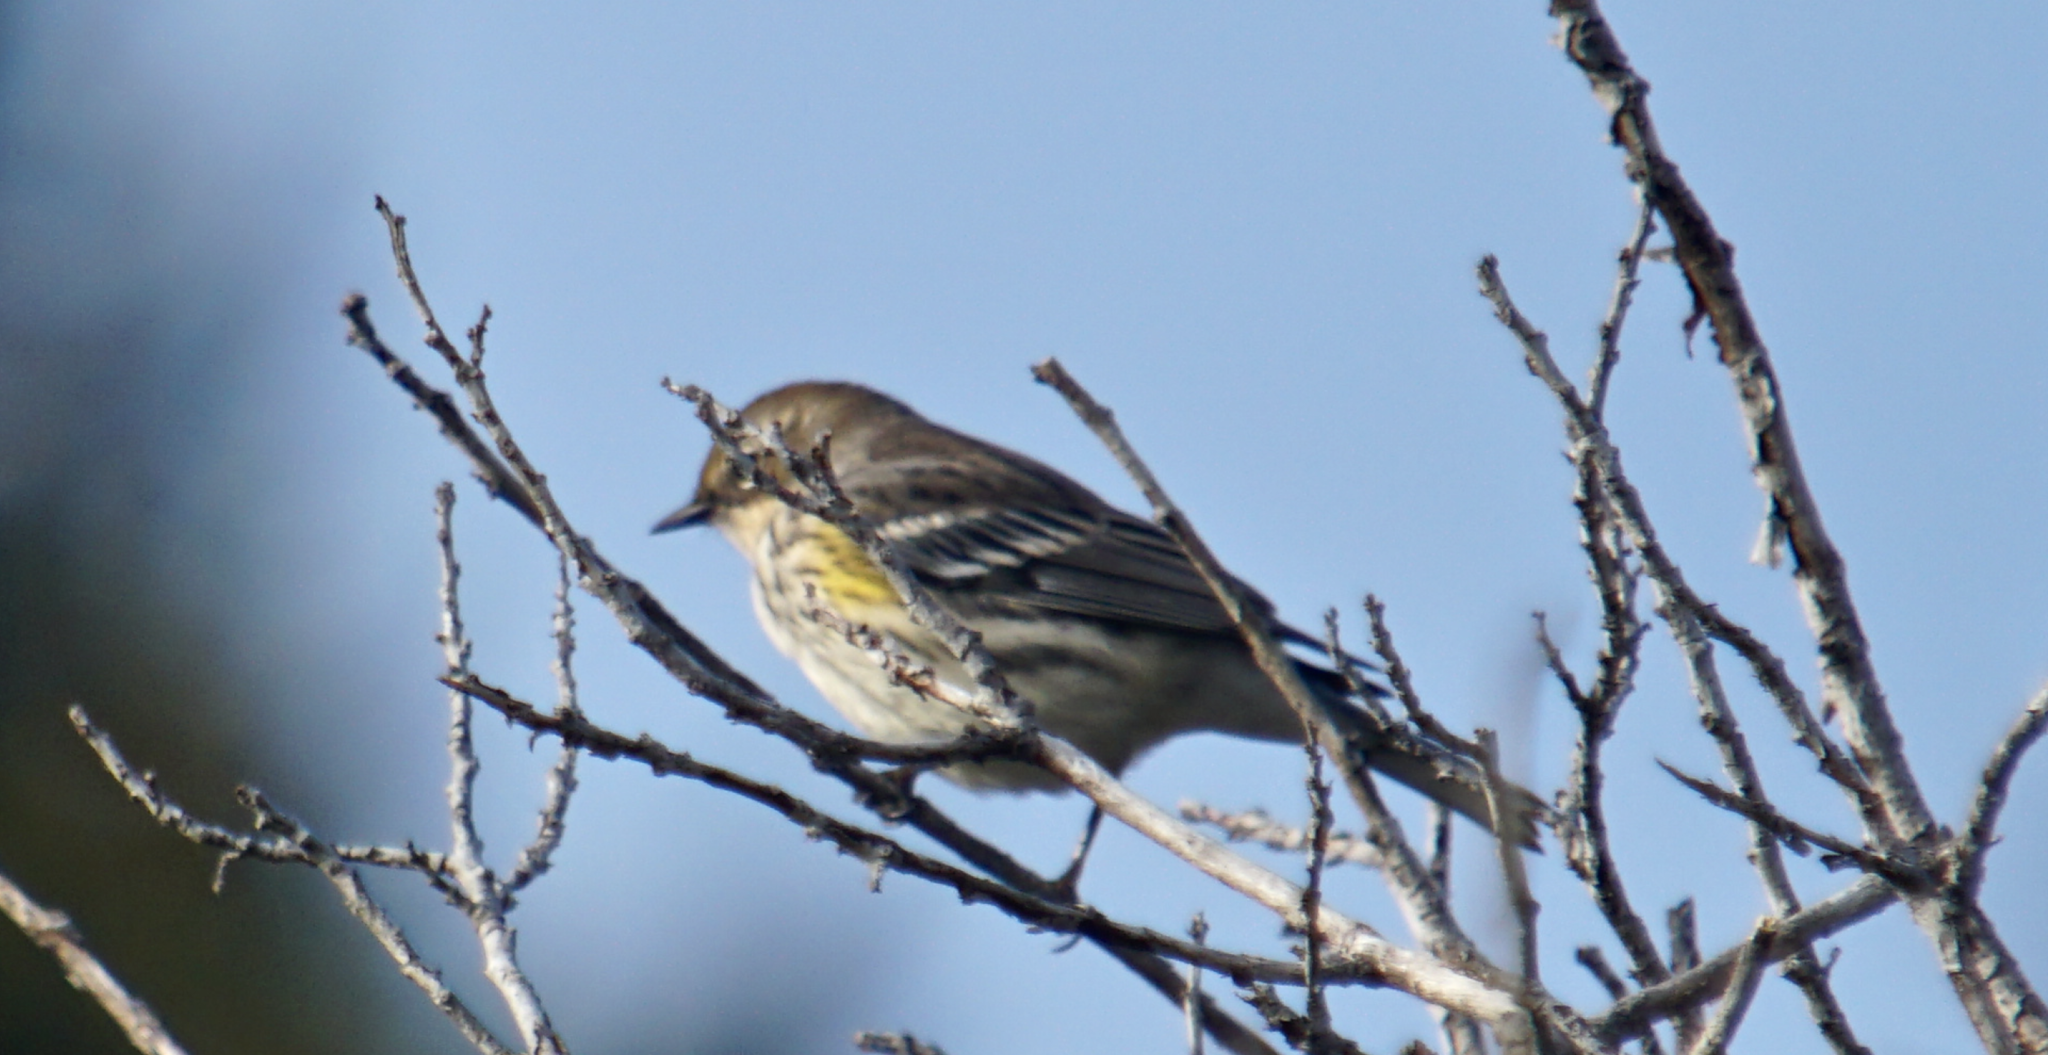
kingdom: Animalia
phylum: Chordata
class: Aves
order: Passeriformes
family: Parulidae
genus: Setophaga
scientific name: Setophaga coronata
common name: Myrtle warbler
